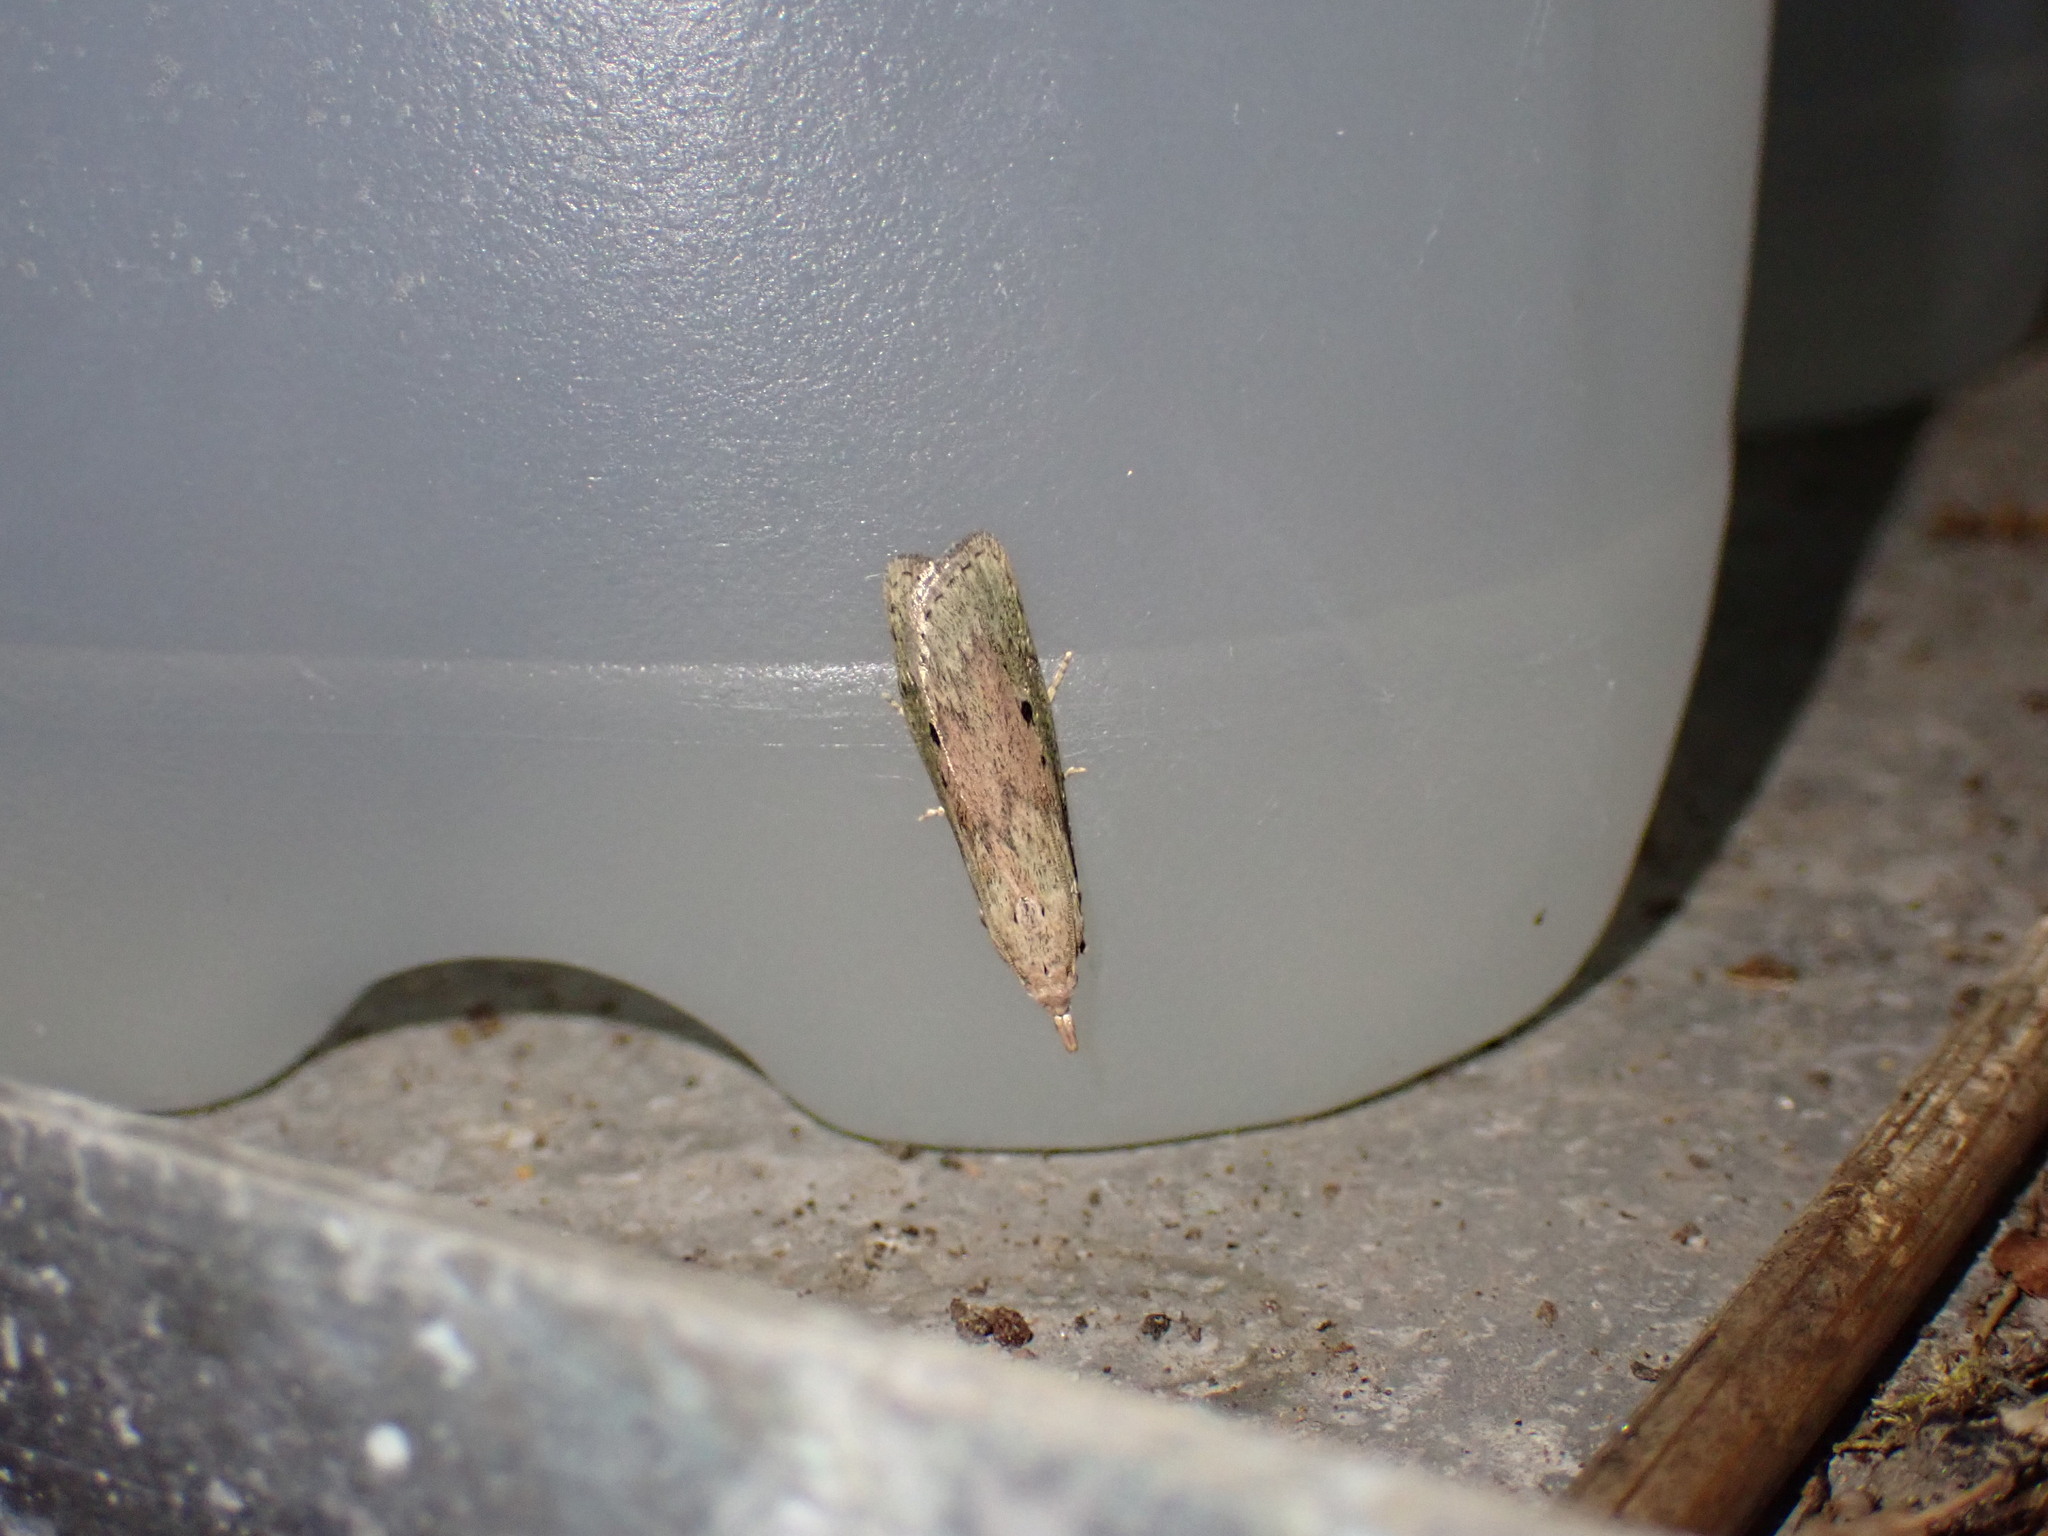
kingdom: Animalia
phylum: Arthropoda
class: Insecta
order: Lepidoptera
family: Pyralidae
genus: Aphomia
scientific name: Aphomia sociella
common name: Bee moth
